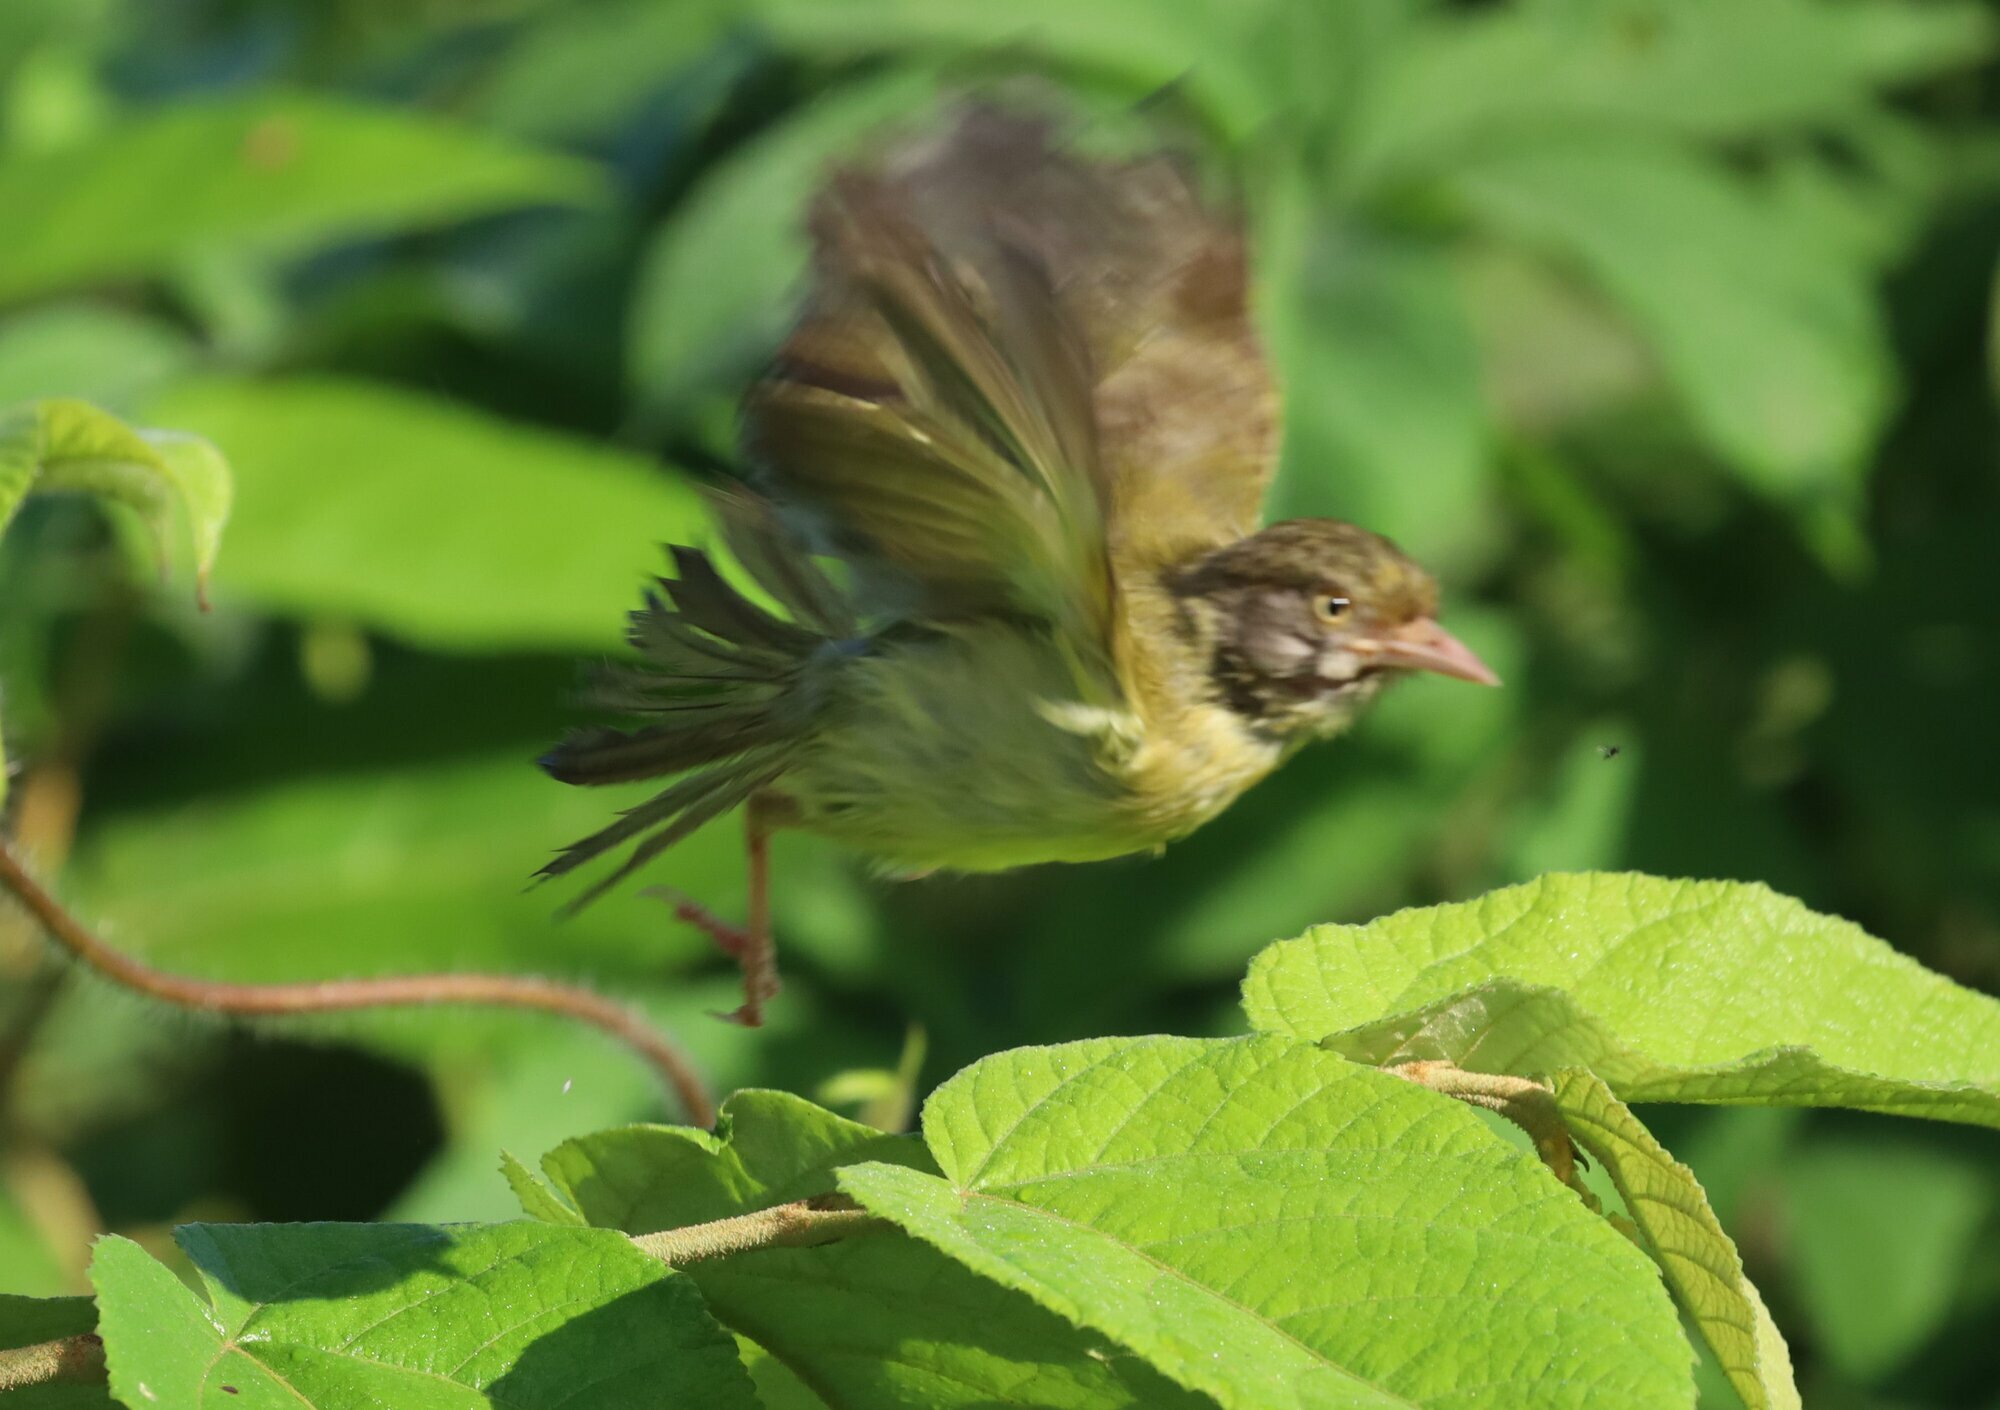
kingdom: Animalia
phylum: Chordata
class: Aves
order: Passeriformes
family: Vireonidae
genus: Hylophilus
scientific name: Hylophilus flavipes
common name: Scrub greenlet
